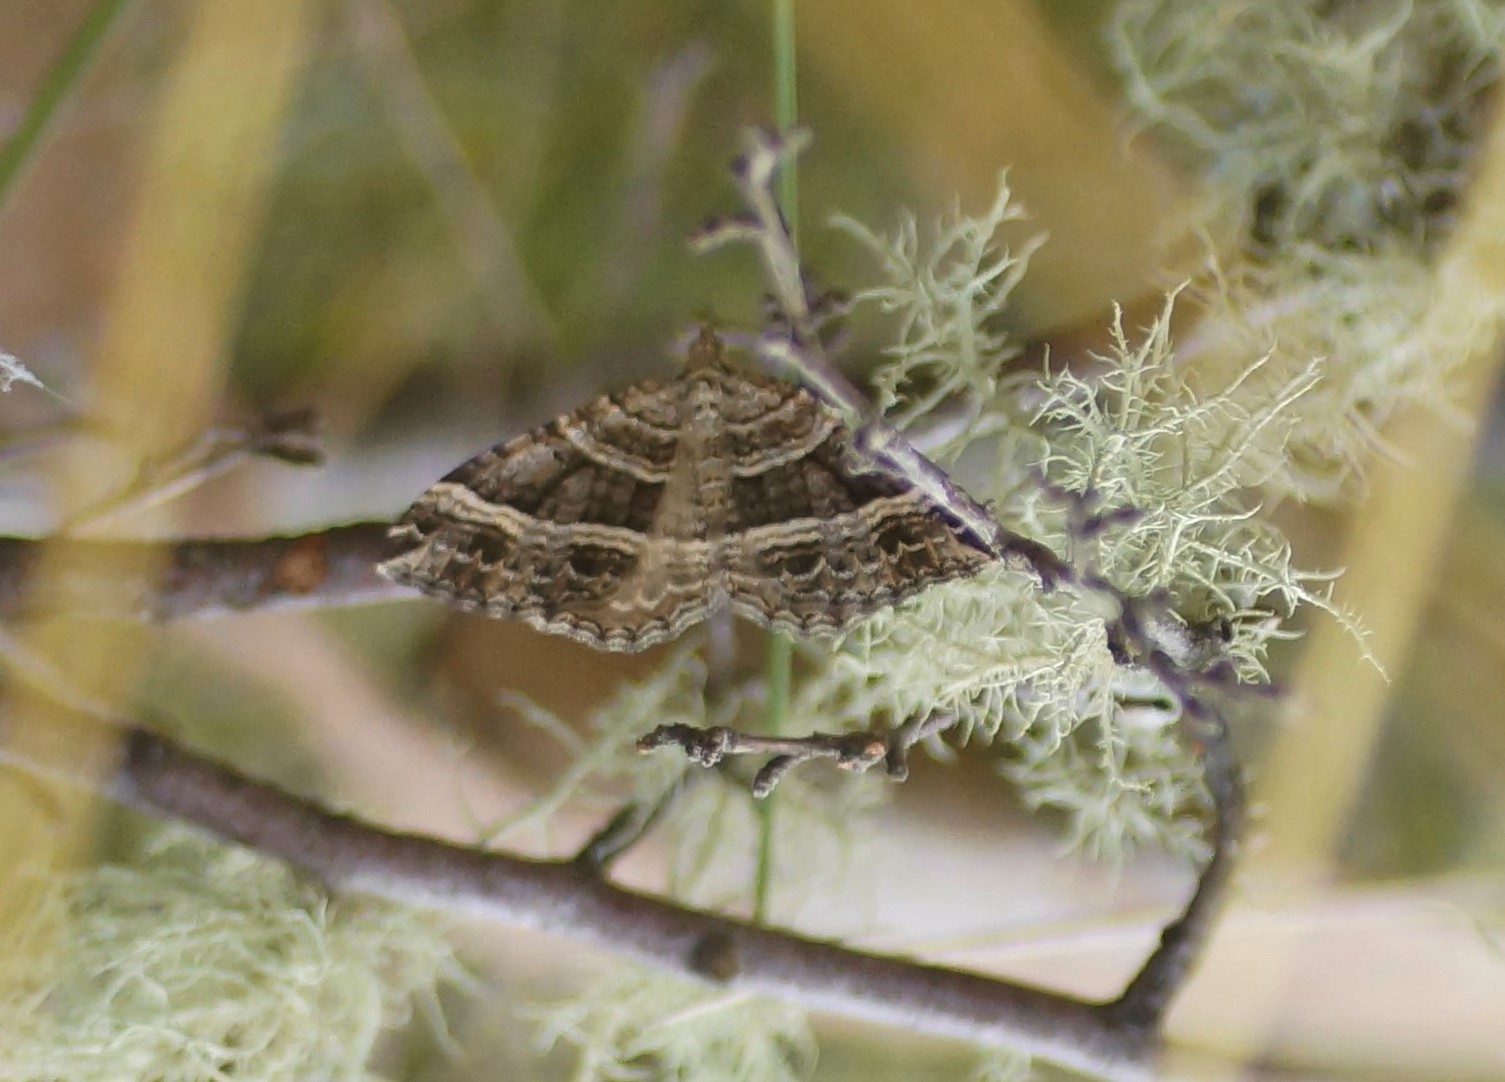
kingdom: Animalia
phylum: Arthropoda
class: Insecta
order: Lepidoptera
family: Geometridae
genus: Chrysolarentia
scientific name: Chrysolarentia subrectaria
